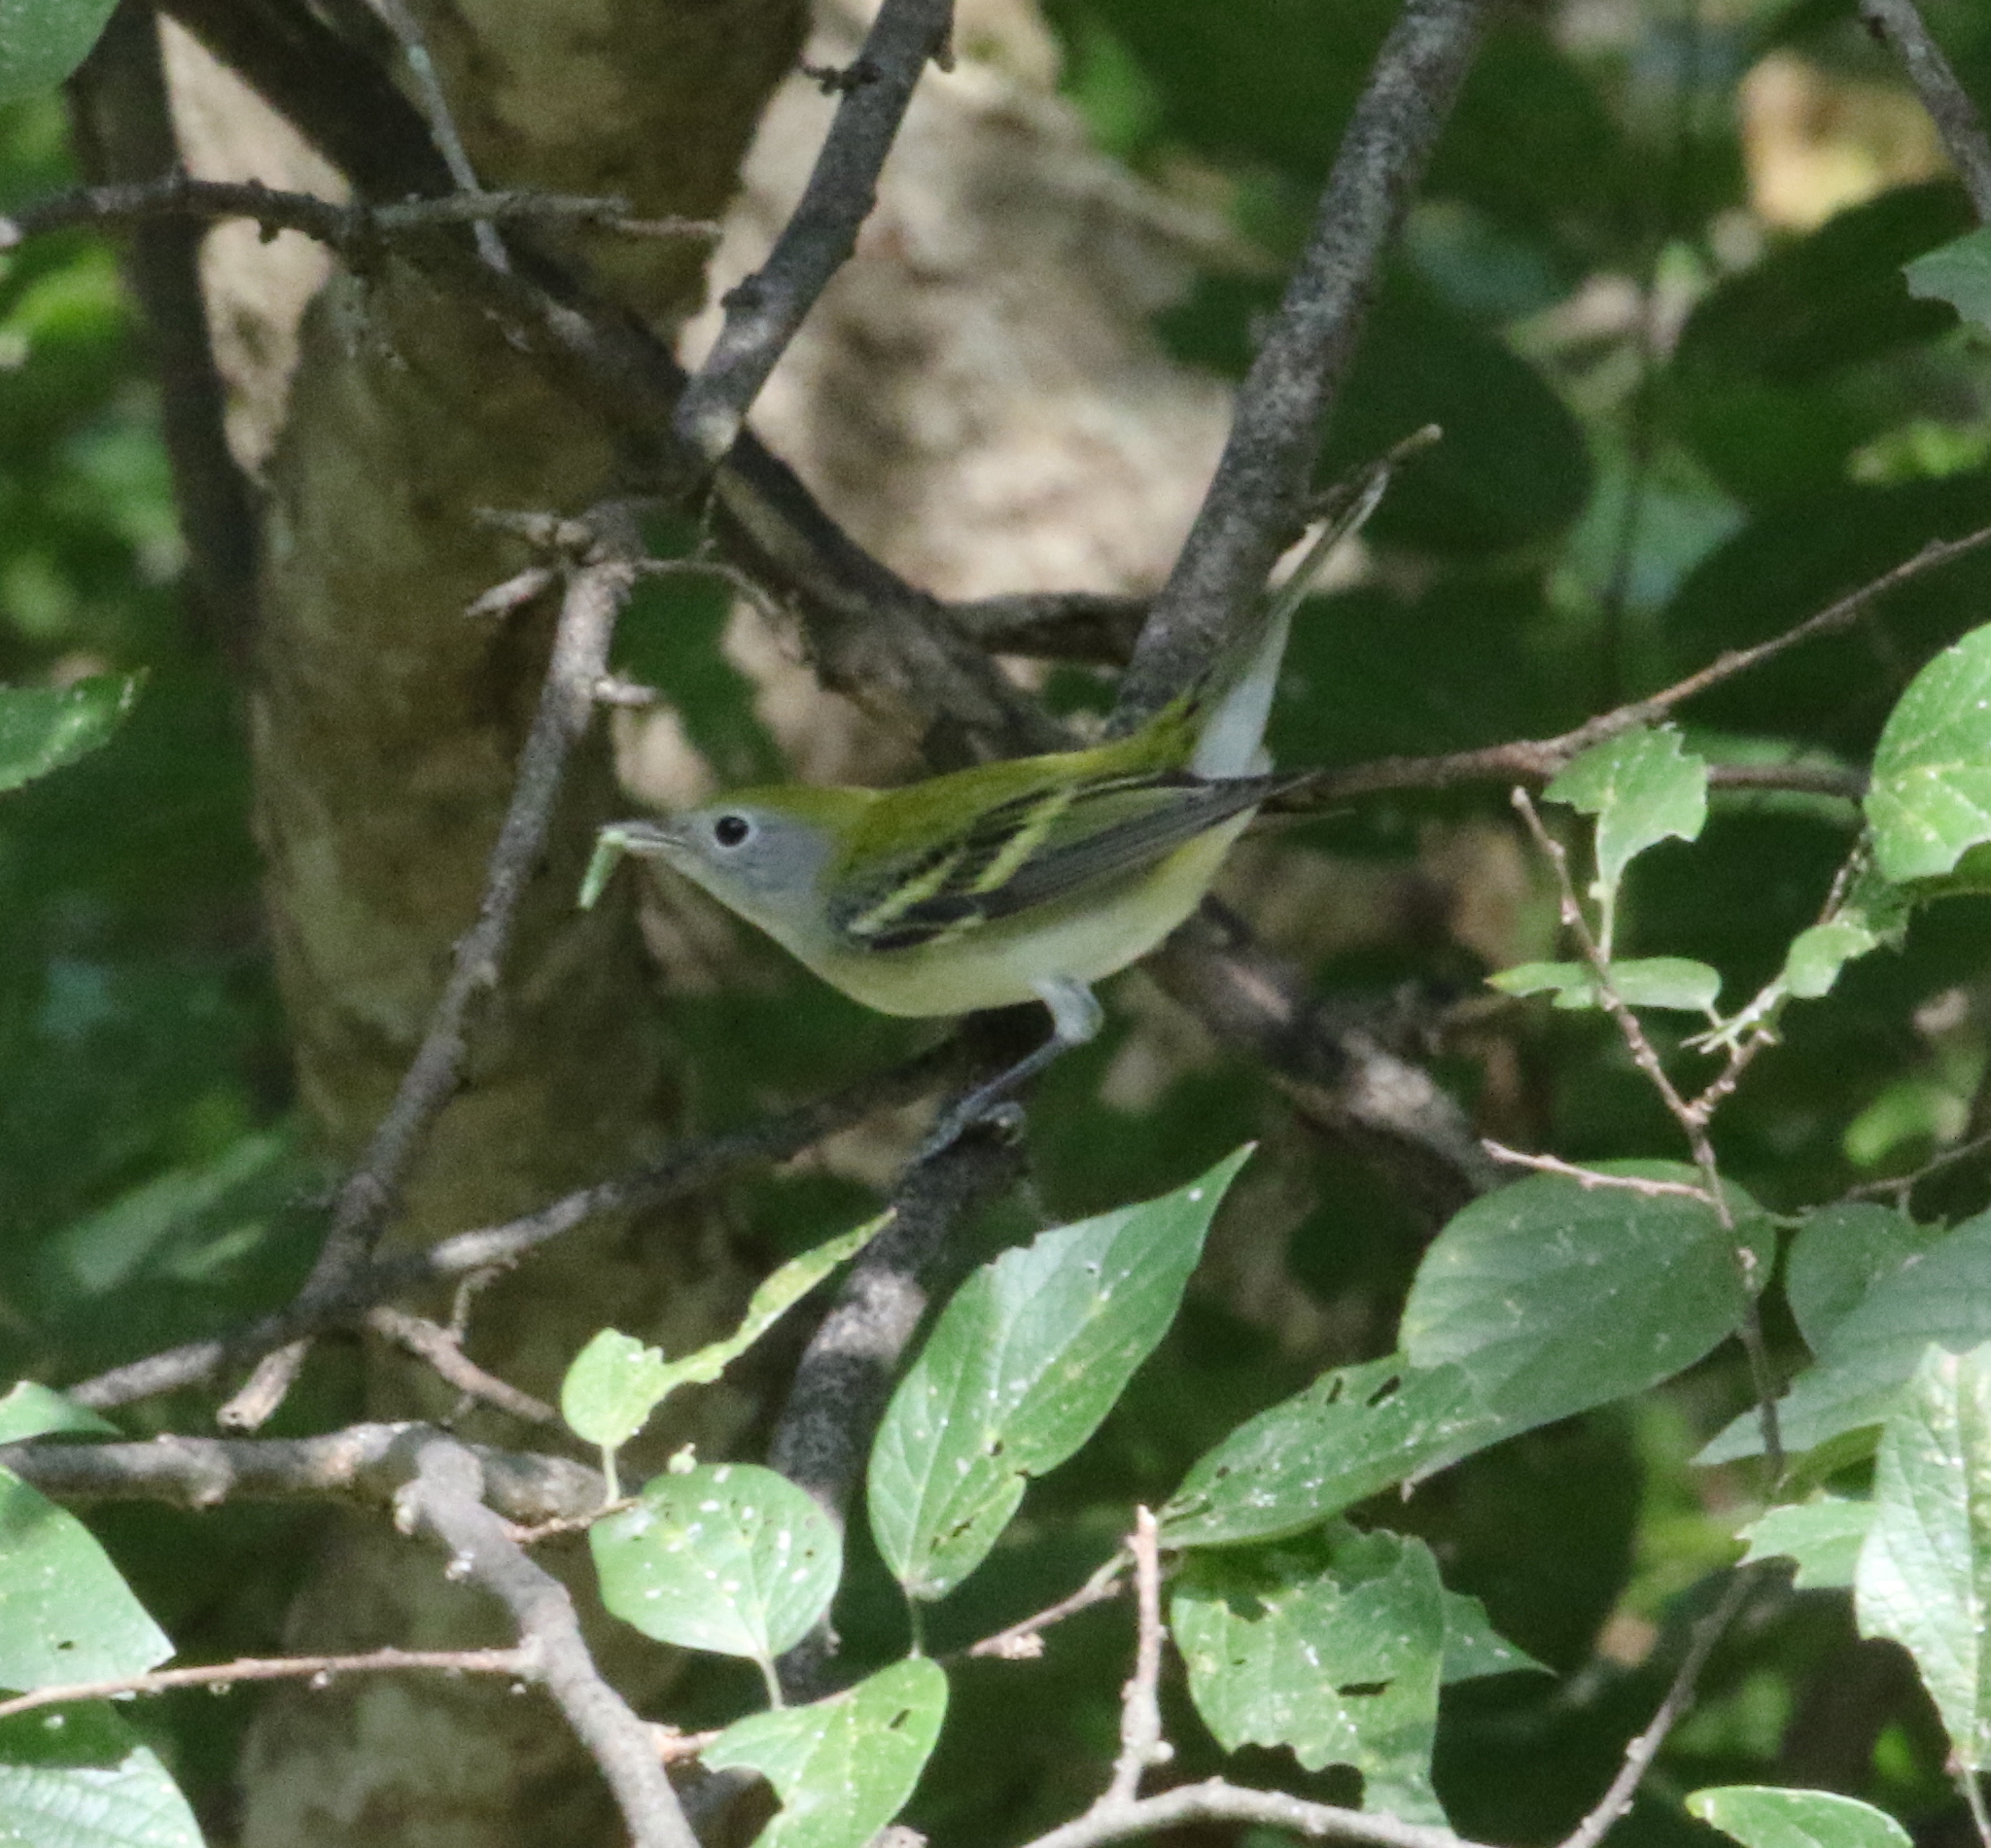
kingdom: Animalia
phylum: Chordata
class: Aves
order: Passeriformes
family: Parulidae
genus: Setophaga
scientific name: Setophaga pensylvanica
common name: Chestnut-sided warbler
